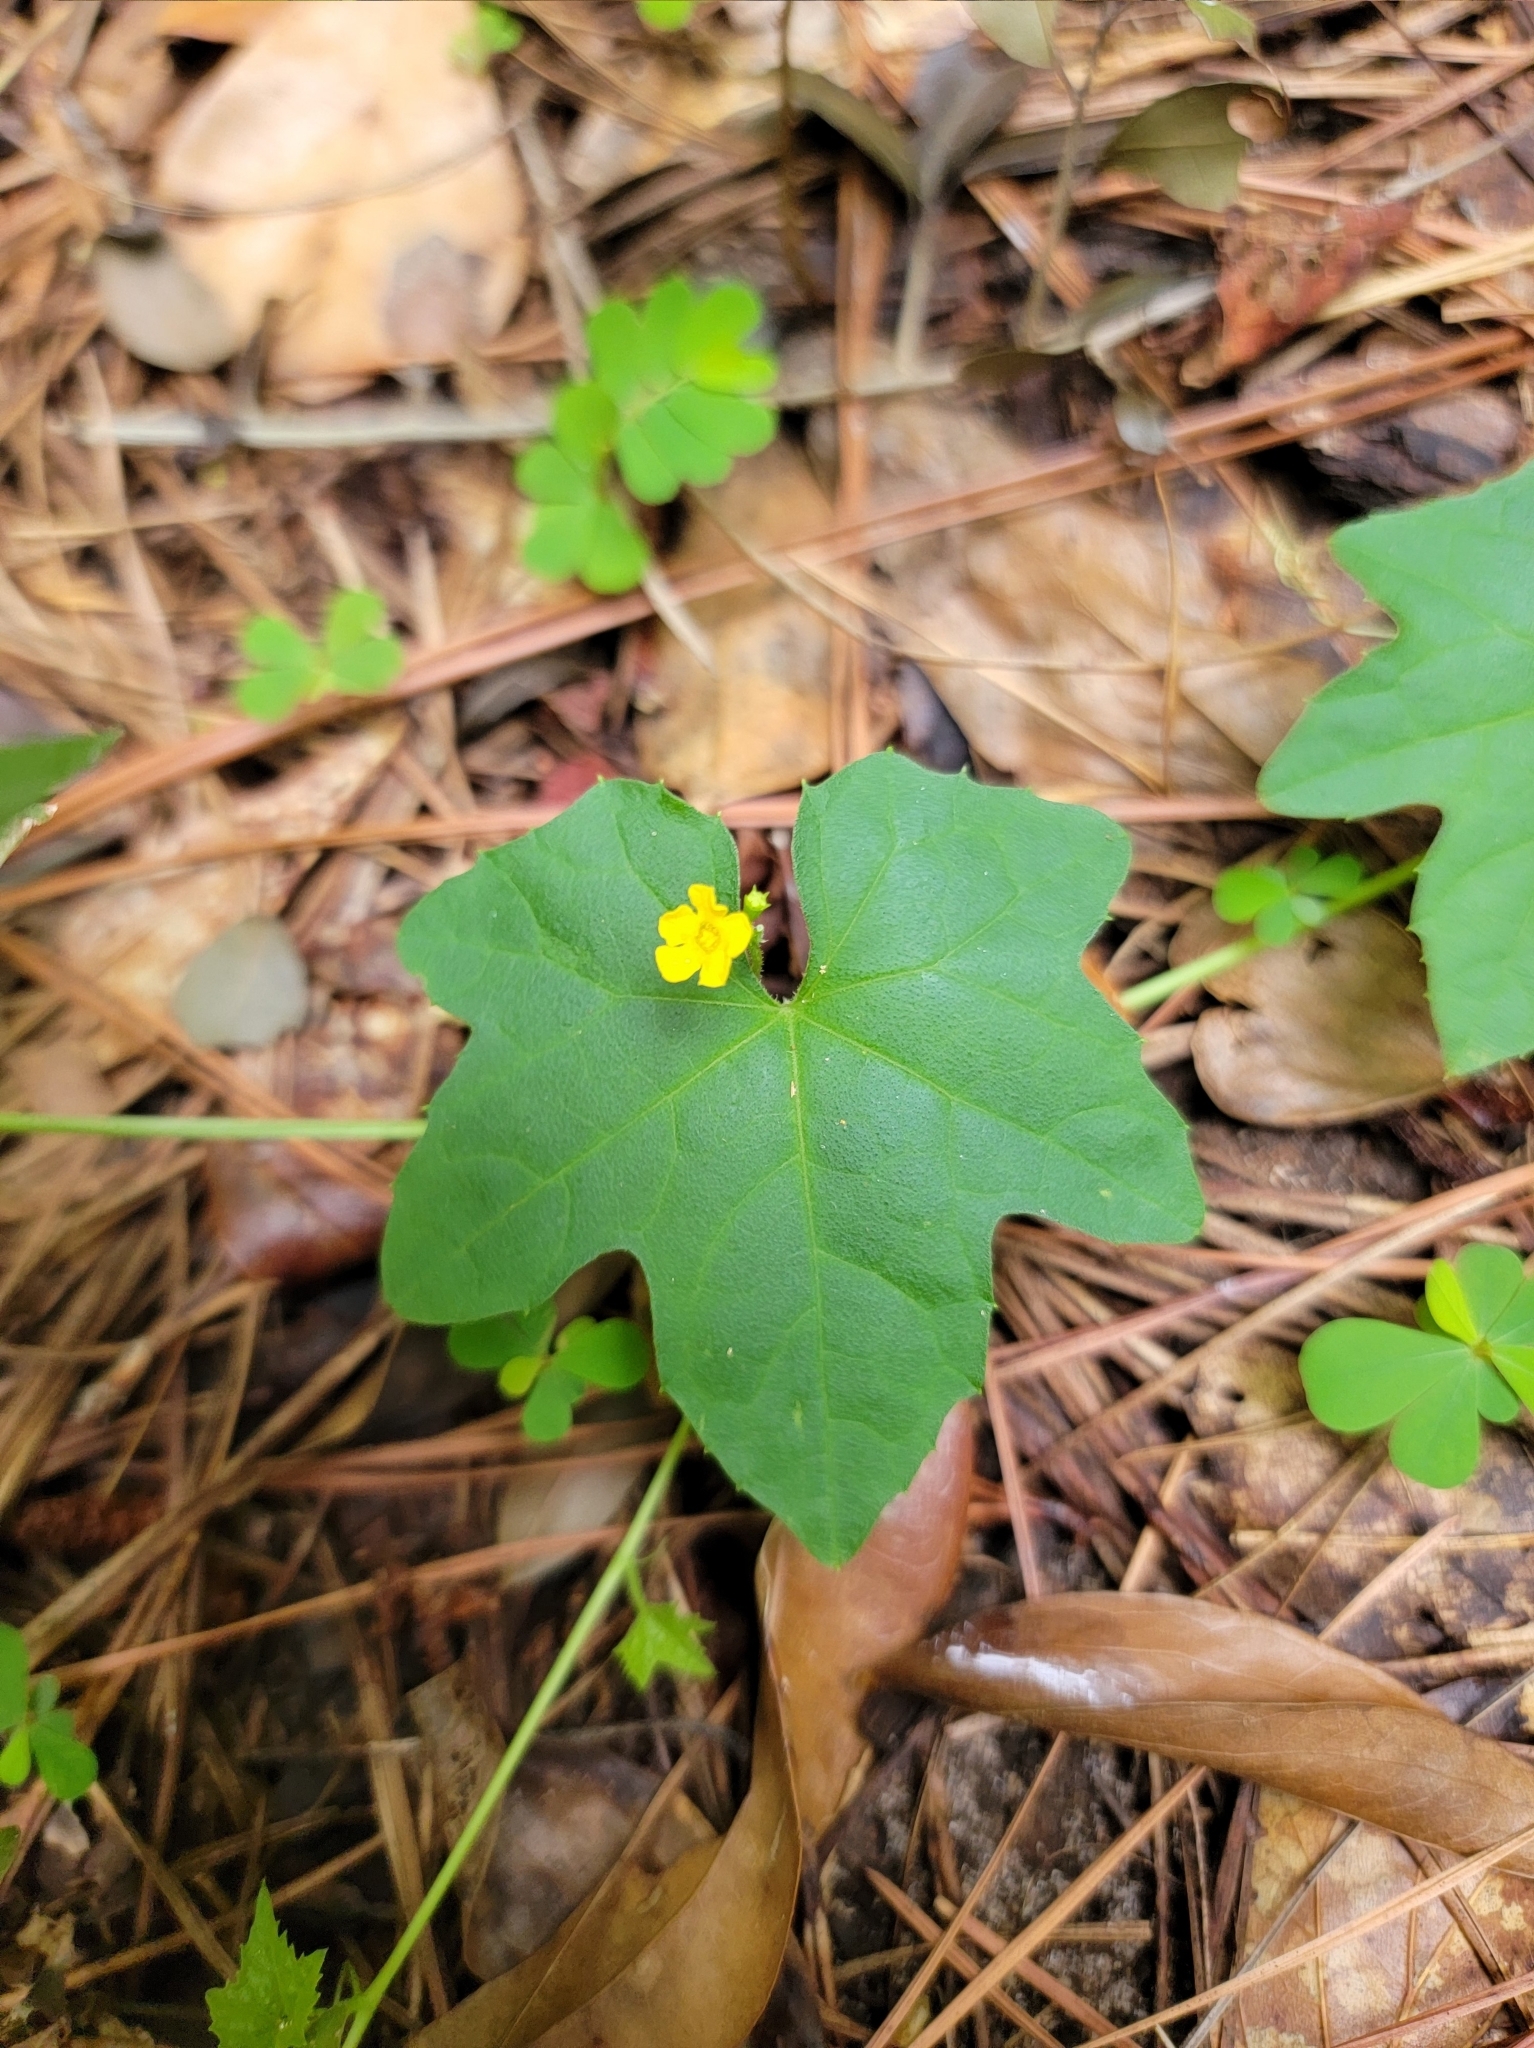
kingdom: Plantae
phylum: Tracheophyta
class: Magnoliopsida
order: Cucurbitales
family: Cucurbitaceae
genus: Melothria
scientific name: Melothria pendula
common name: Creeping-cucumber
